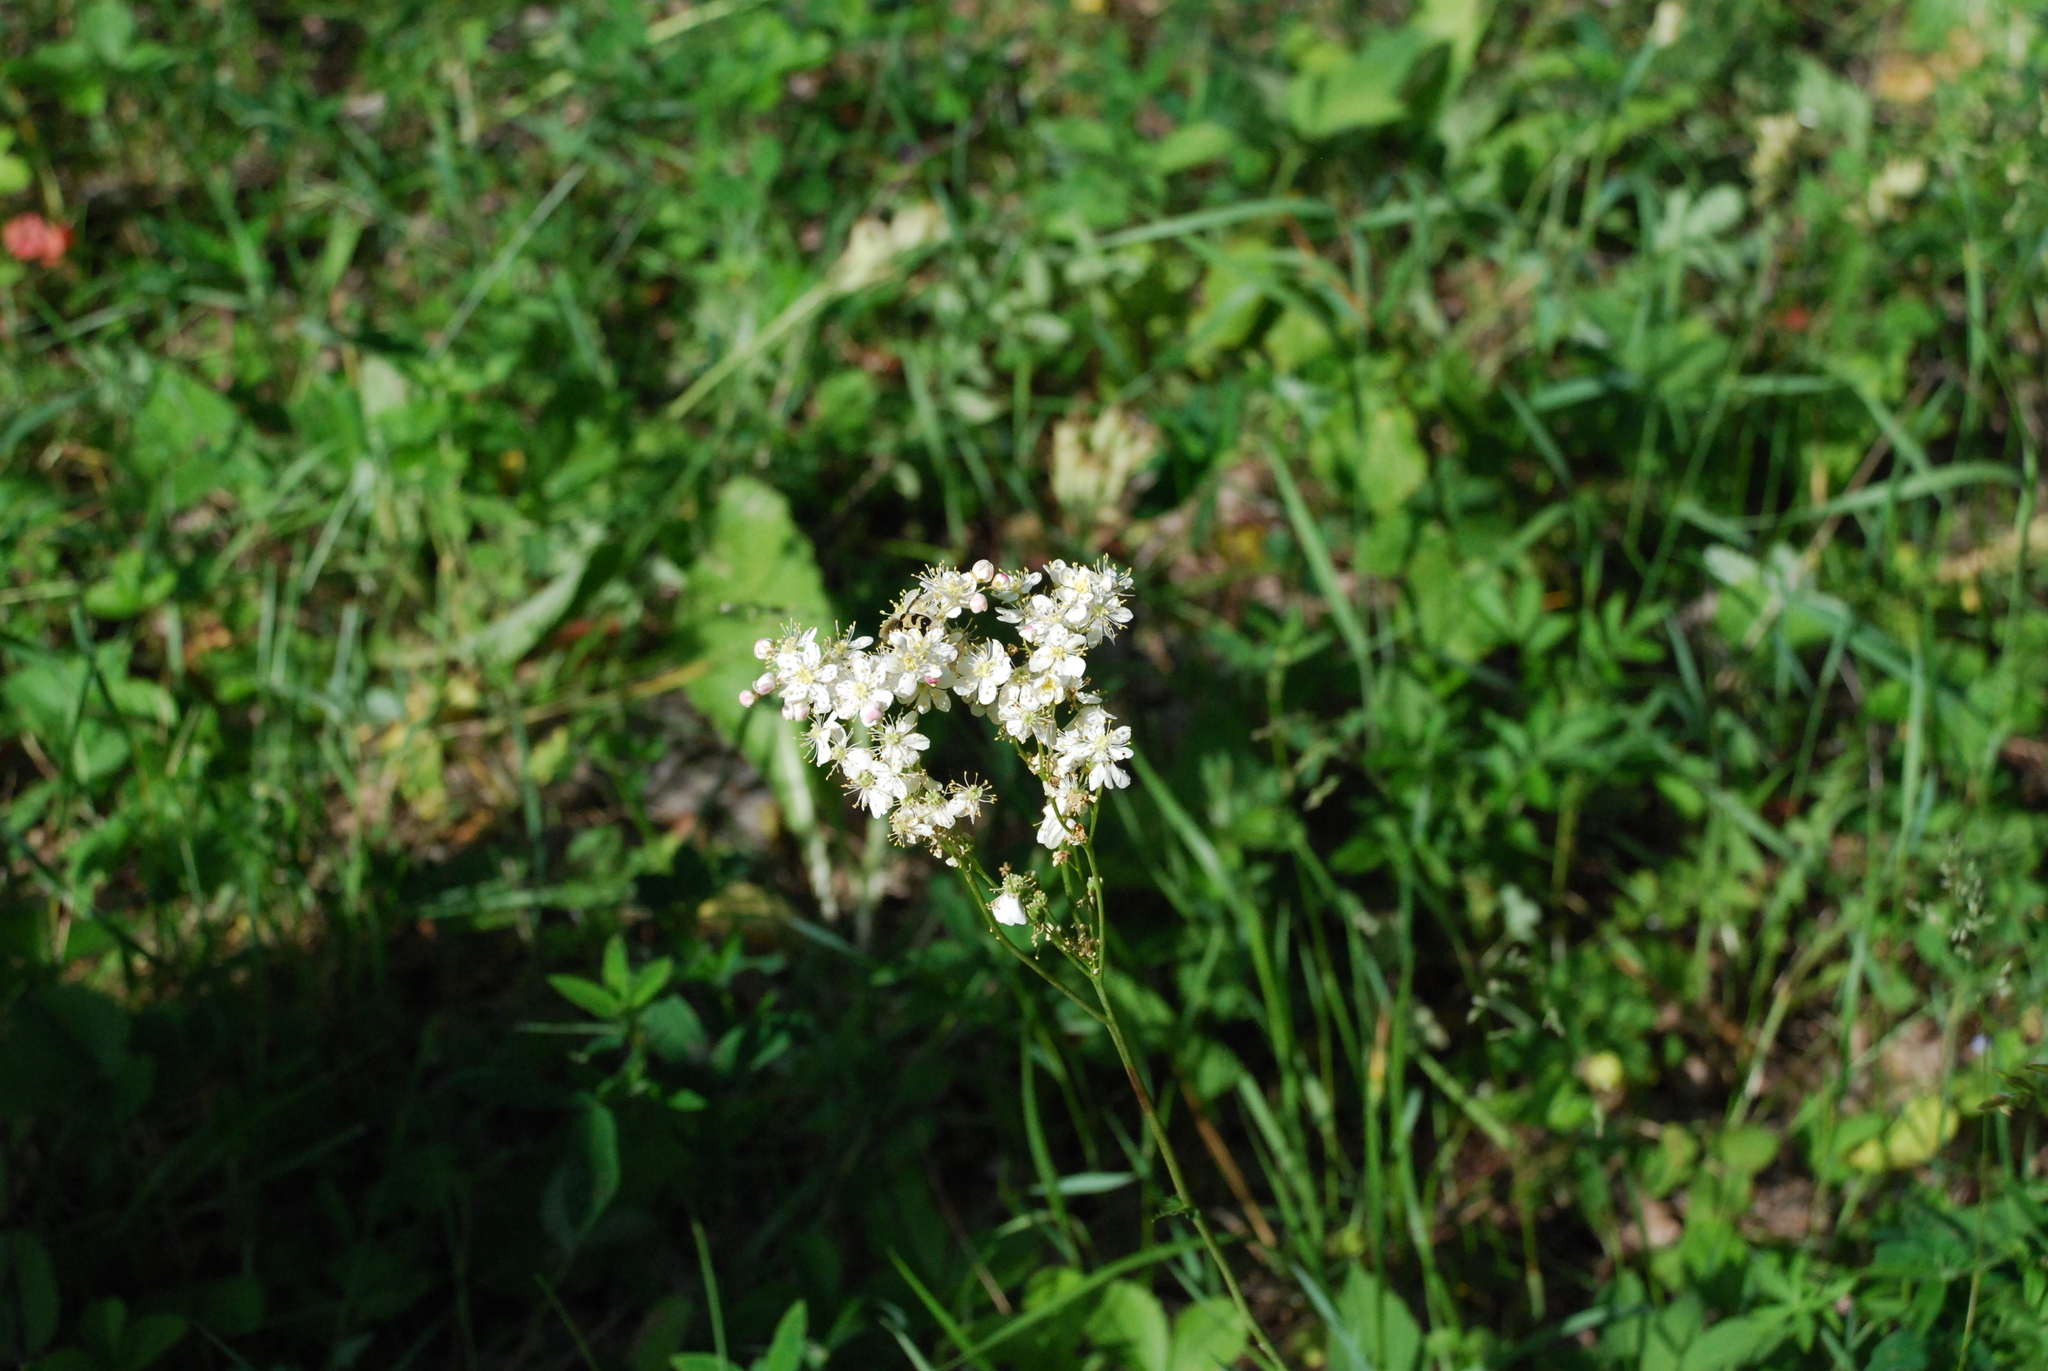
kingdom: Plantae
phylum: Tracheophyta
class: Magnoliopsida
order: Rosales
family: Rosaceae
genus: Filipendula
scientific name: Filipendula vulgaris
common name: Dropwort
